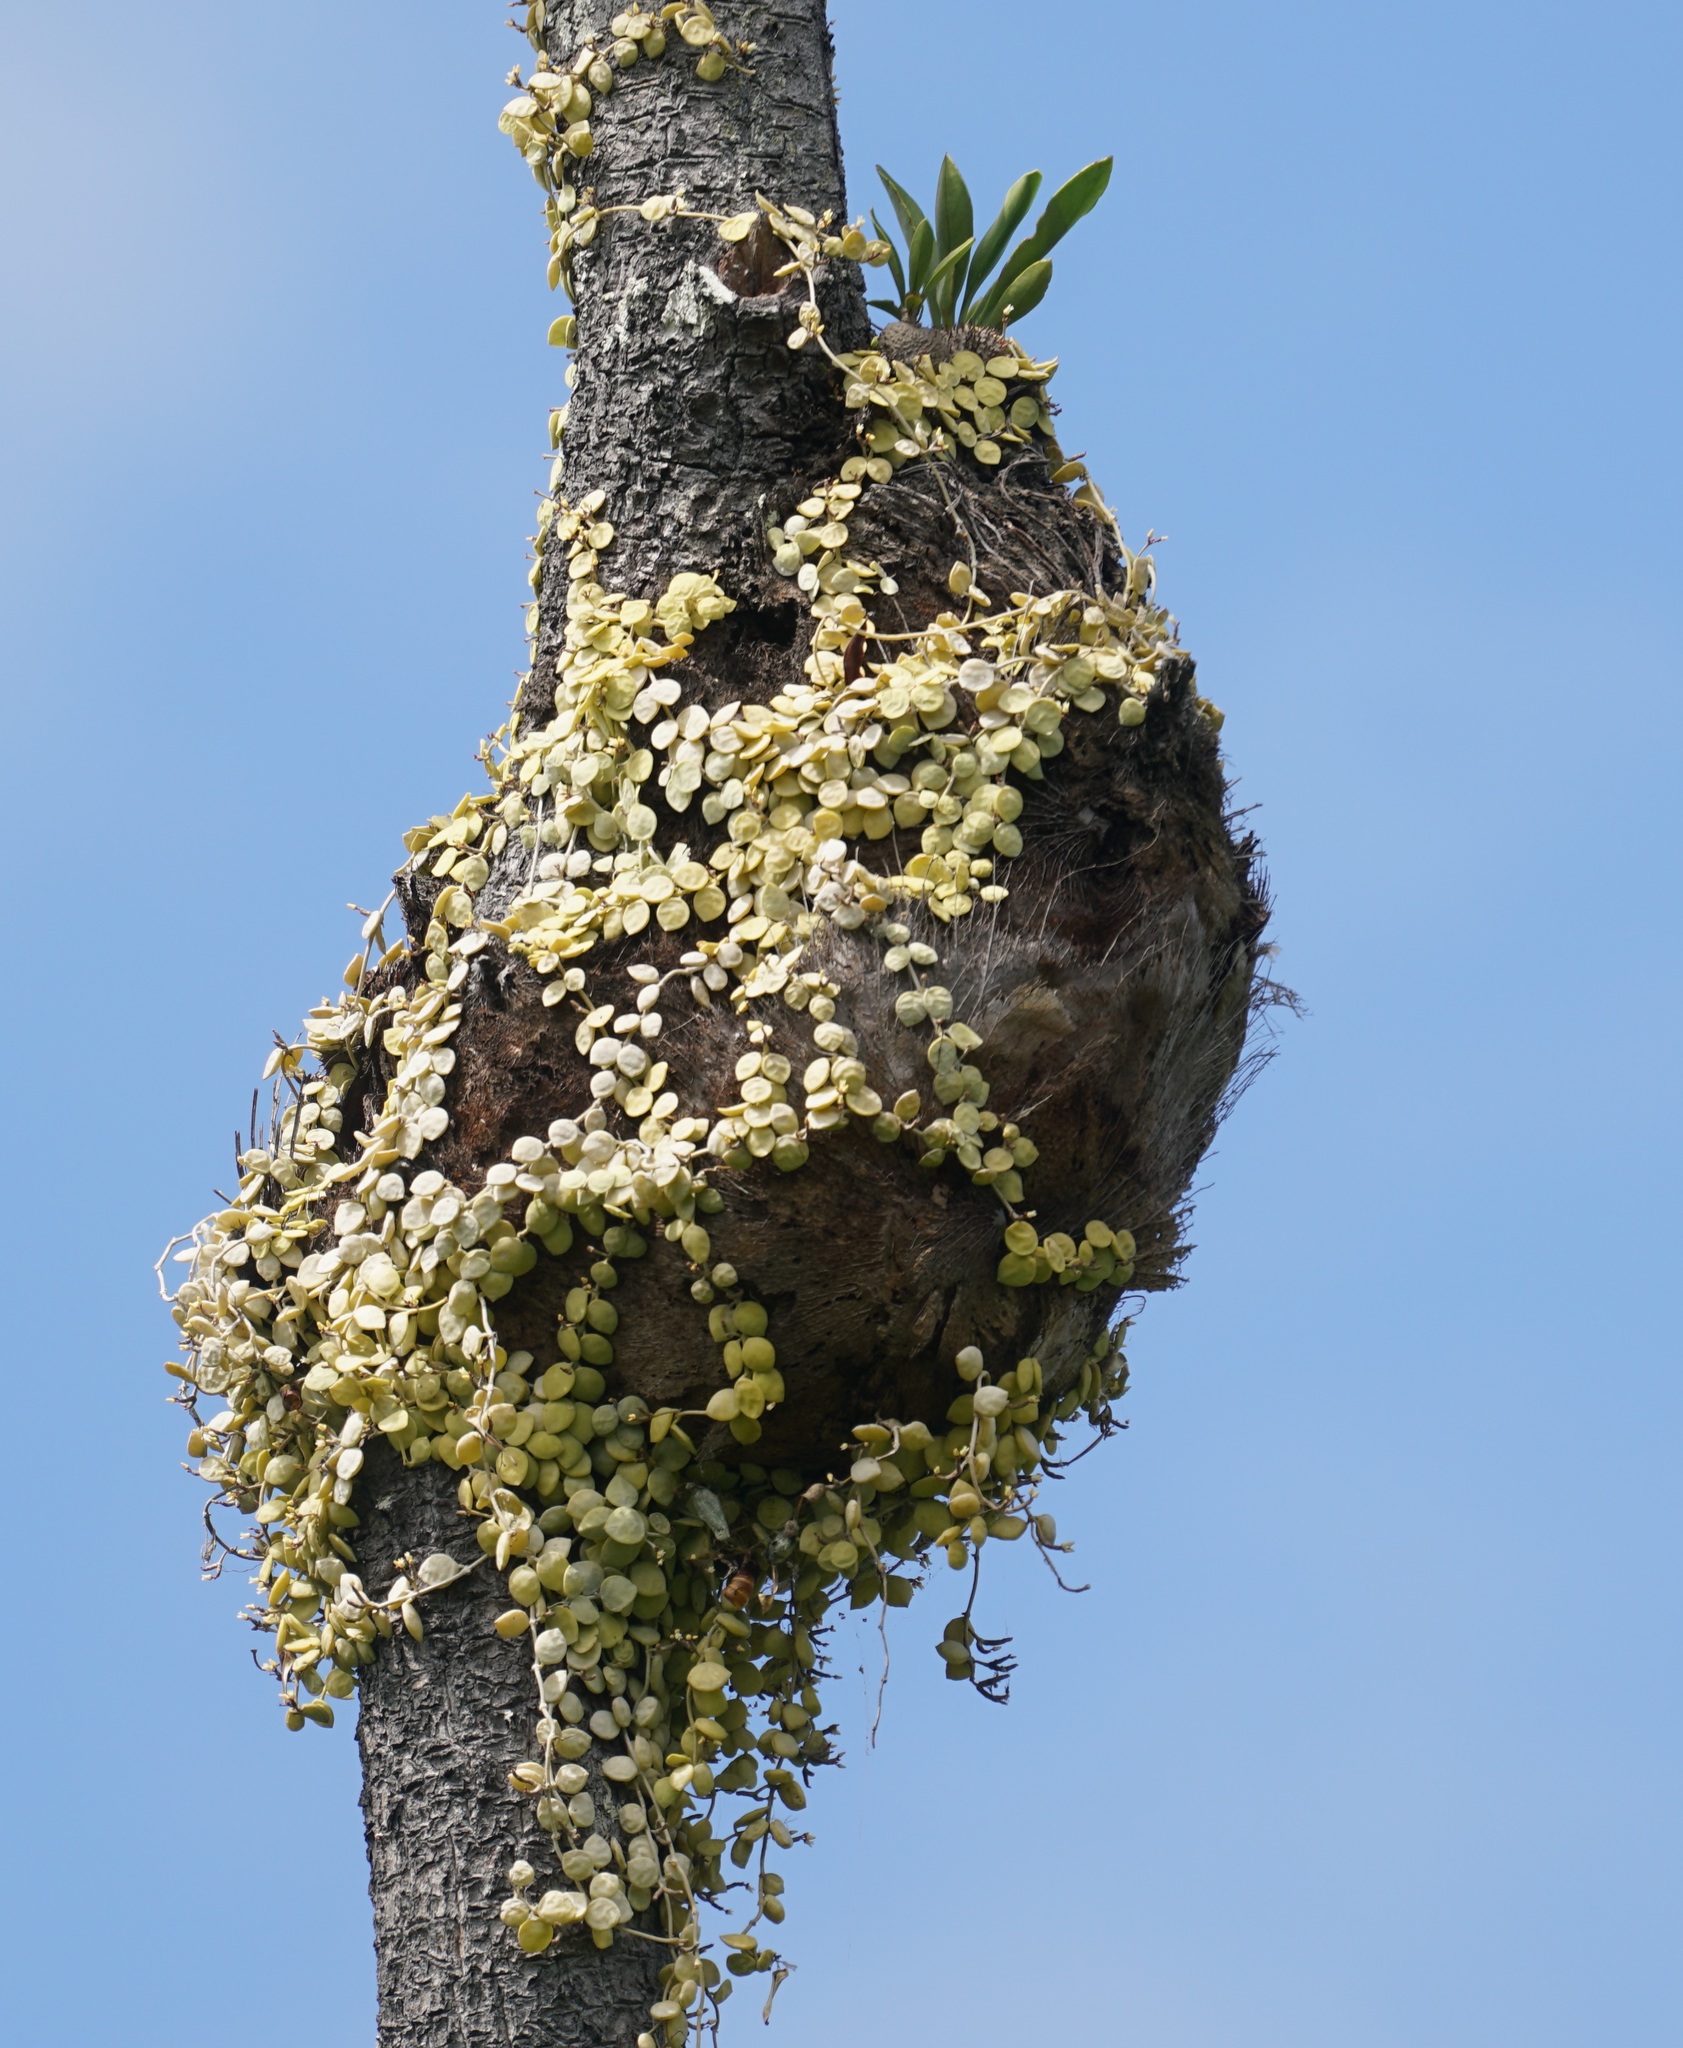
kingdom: Plantae
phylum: Tracheophyta
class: Magnoliopsida
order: Gentianales
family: Apocynaceae
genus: Dischidia
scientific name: Dischidia nummularia
